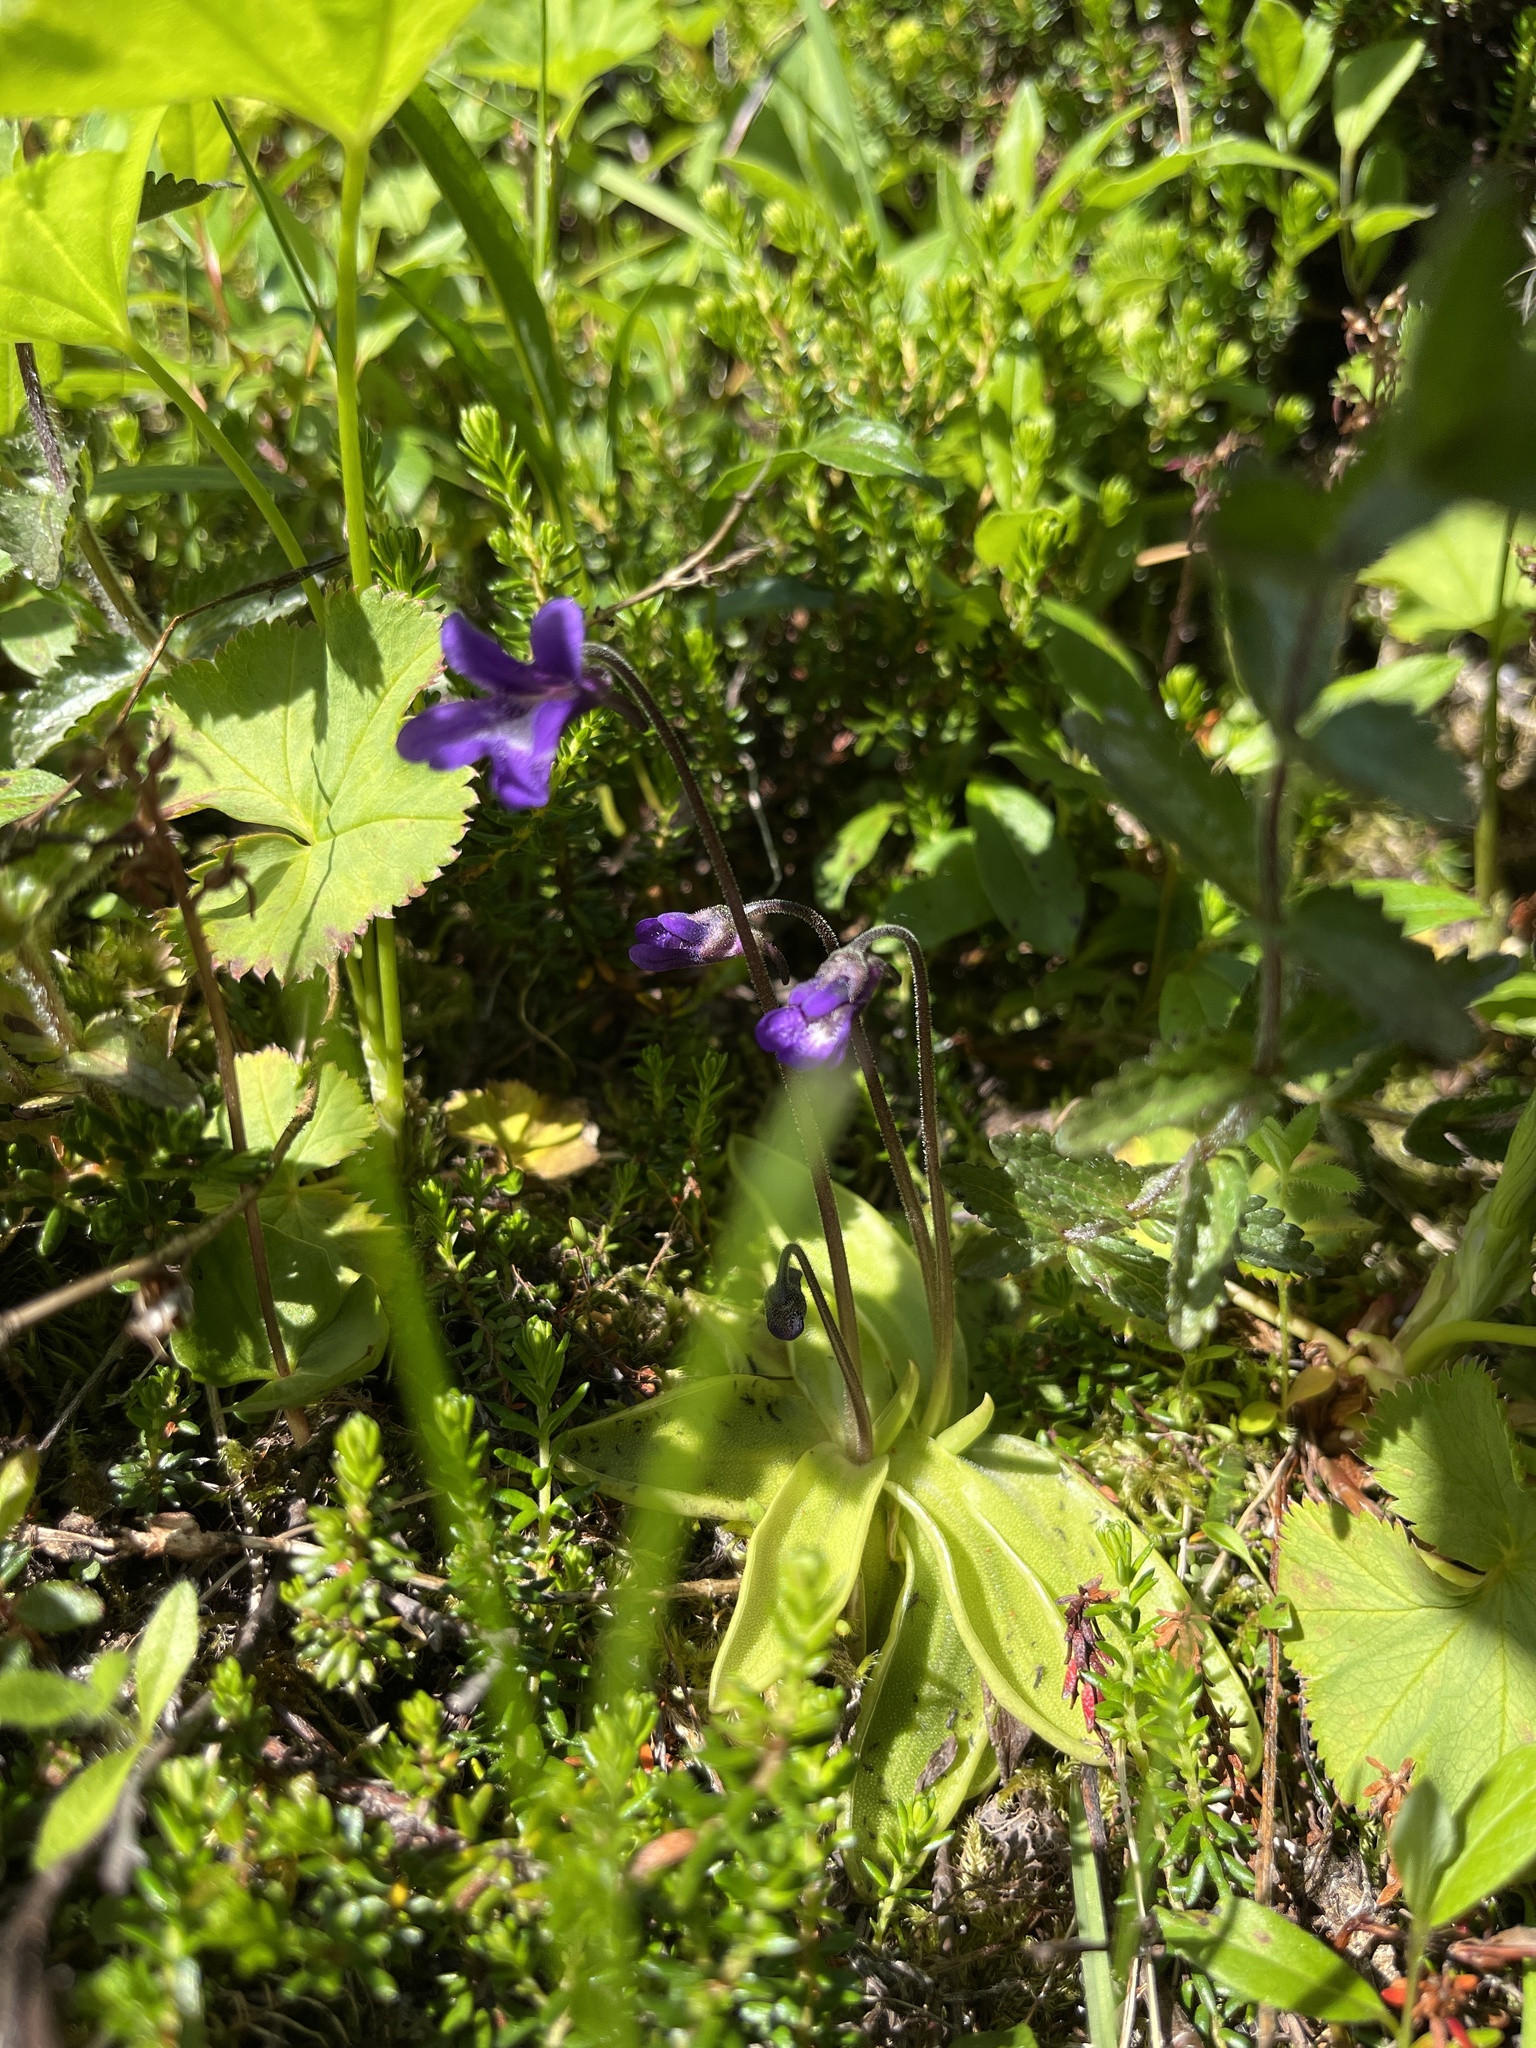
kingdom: Plantae
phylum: Tracheophyta
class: Magnoliopsida
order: Lamiales
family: Lentibulariaceae
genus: Pinguicula
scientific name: Pinguicula vulgaris
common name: Common butterwort
